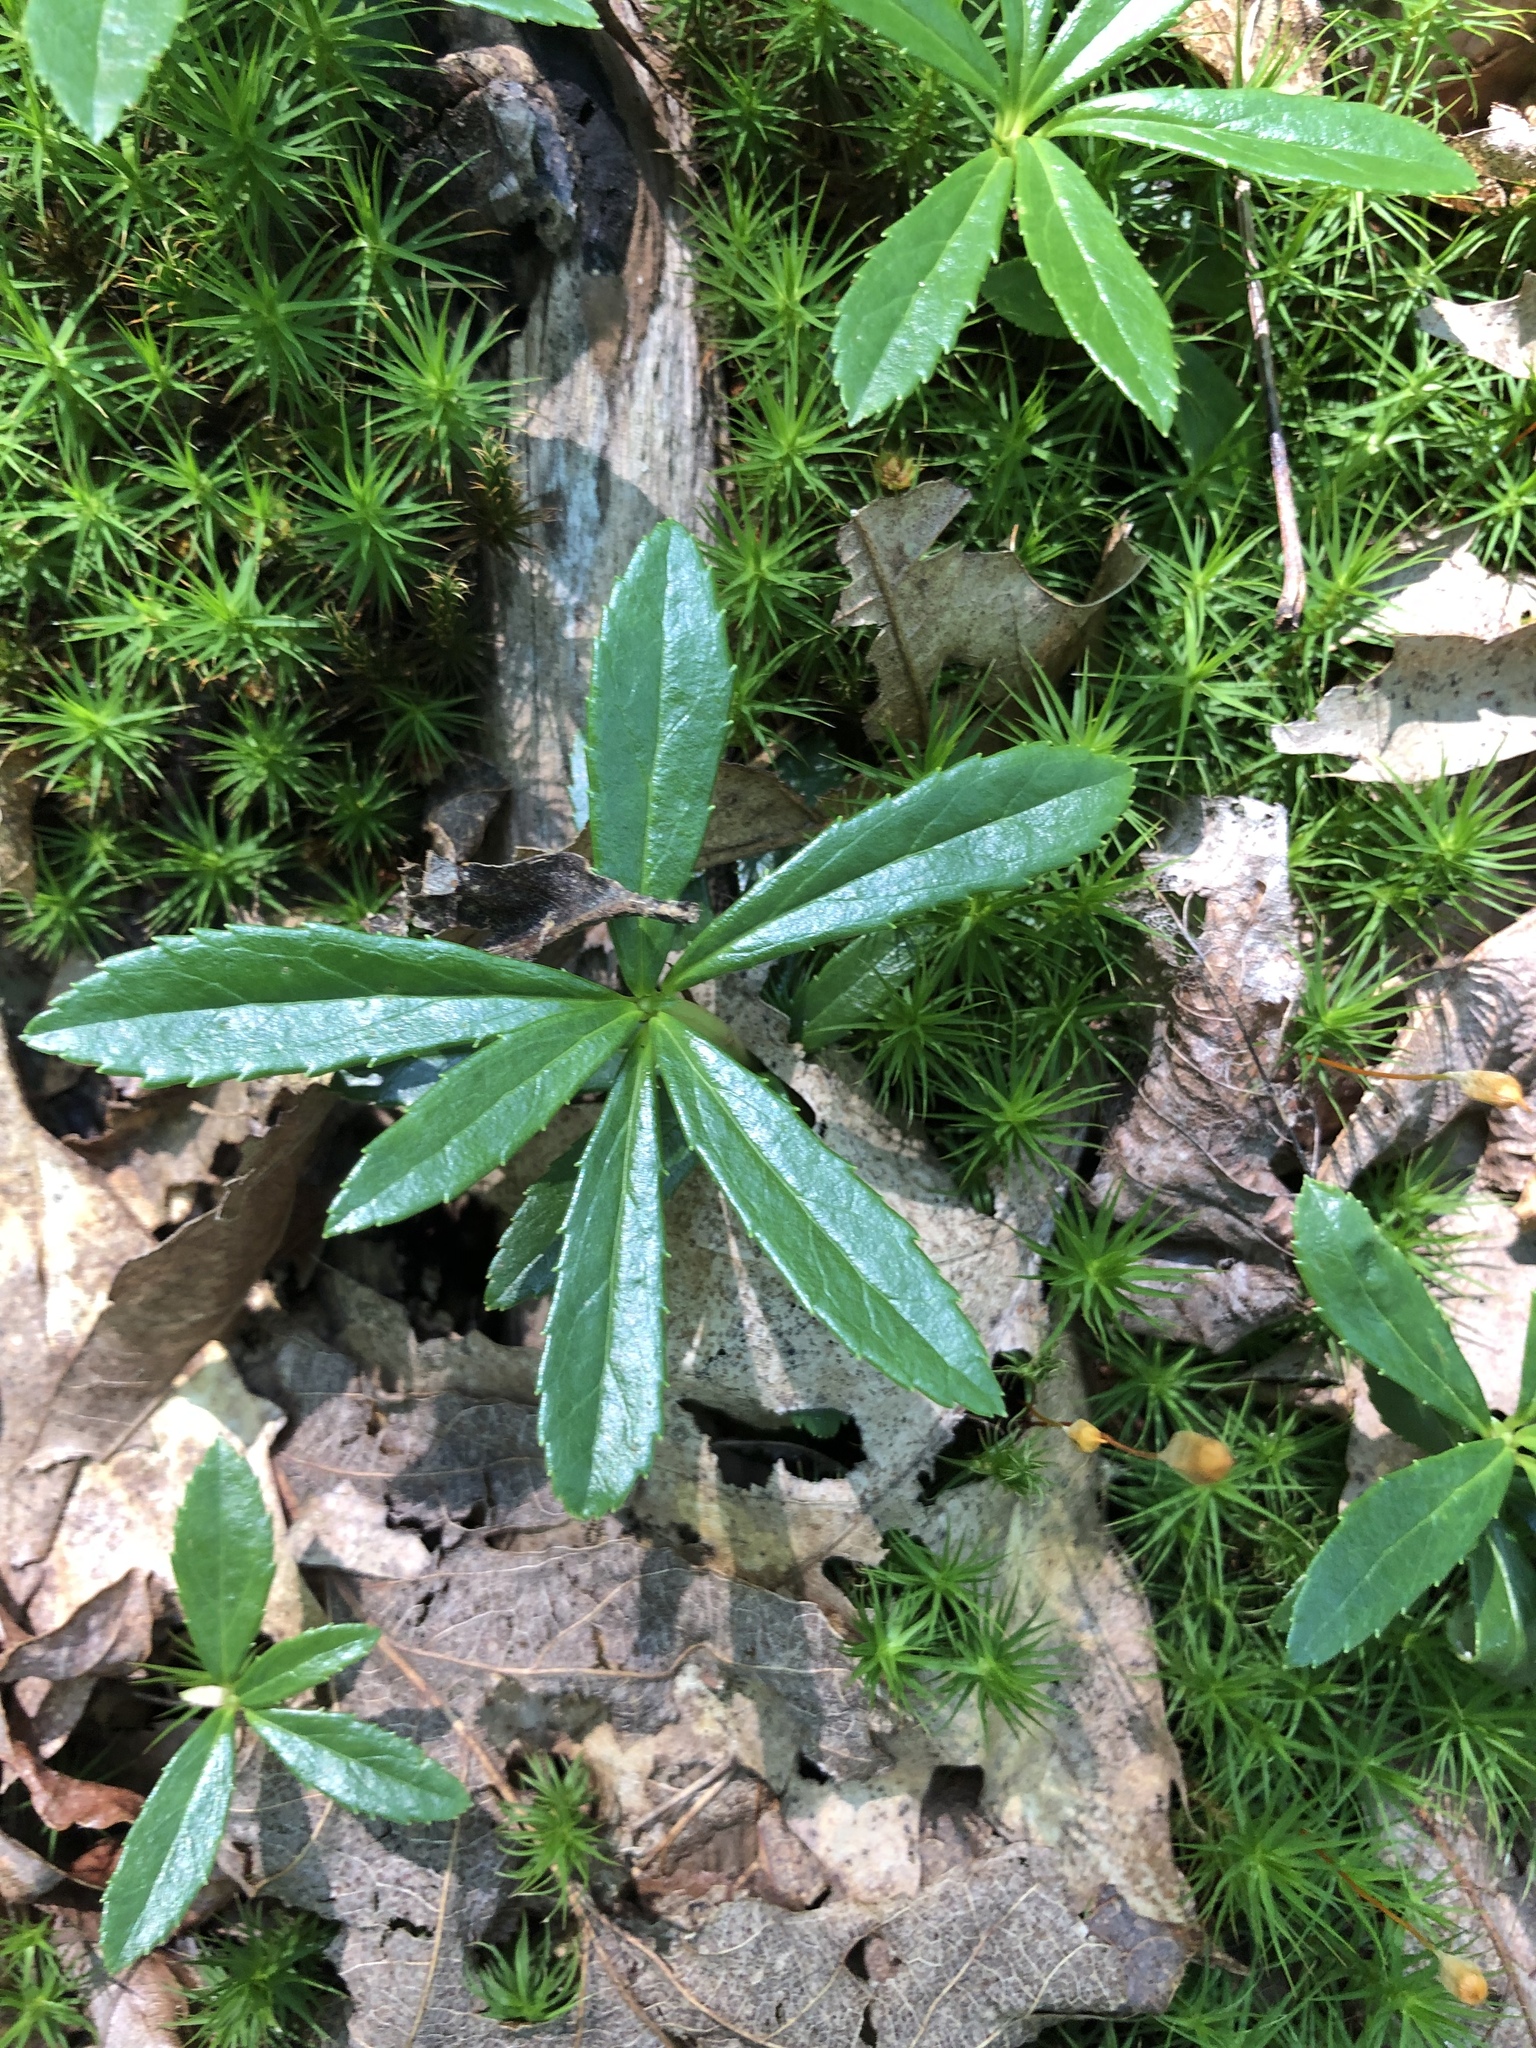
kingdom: Plantae
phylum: Tracheophyta
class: Magnoliopsida
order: Ericales
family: Ericaceae
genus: Chimaphila
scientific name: Chimaphila umbellata
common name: Pipsissewa
